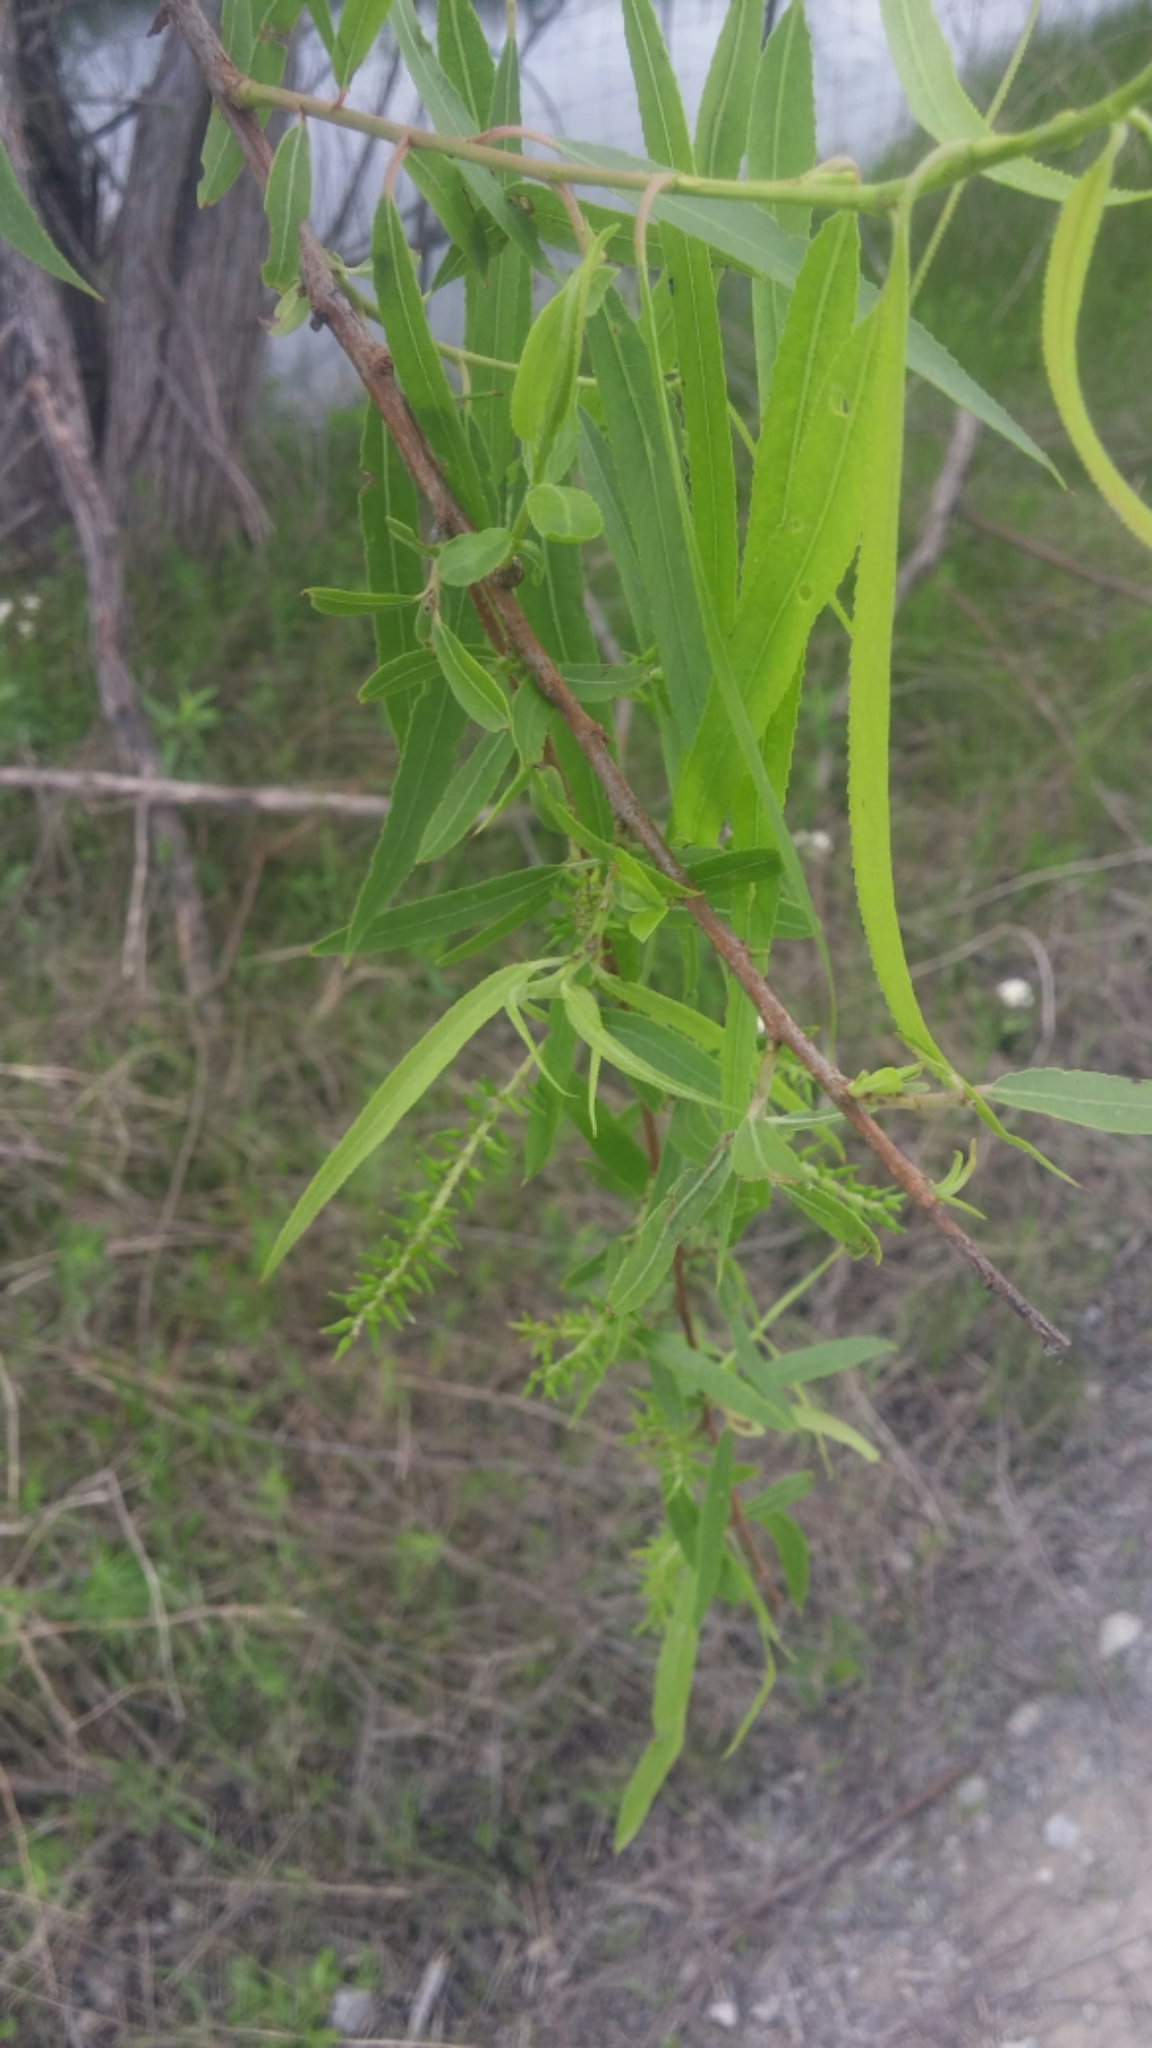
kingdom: Plantae
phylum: Tracheophyta
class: Magnoliopsida
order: Malpighiales
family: Salicaceae
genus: Salix
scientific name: Salix nigra
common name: Black willow
